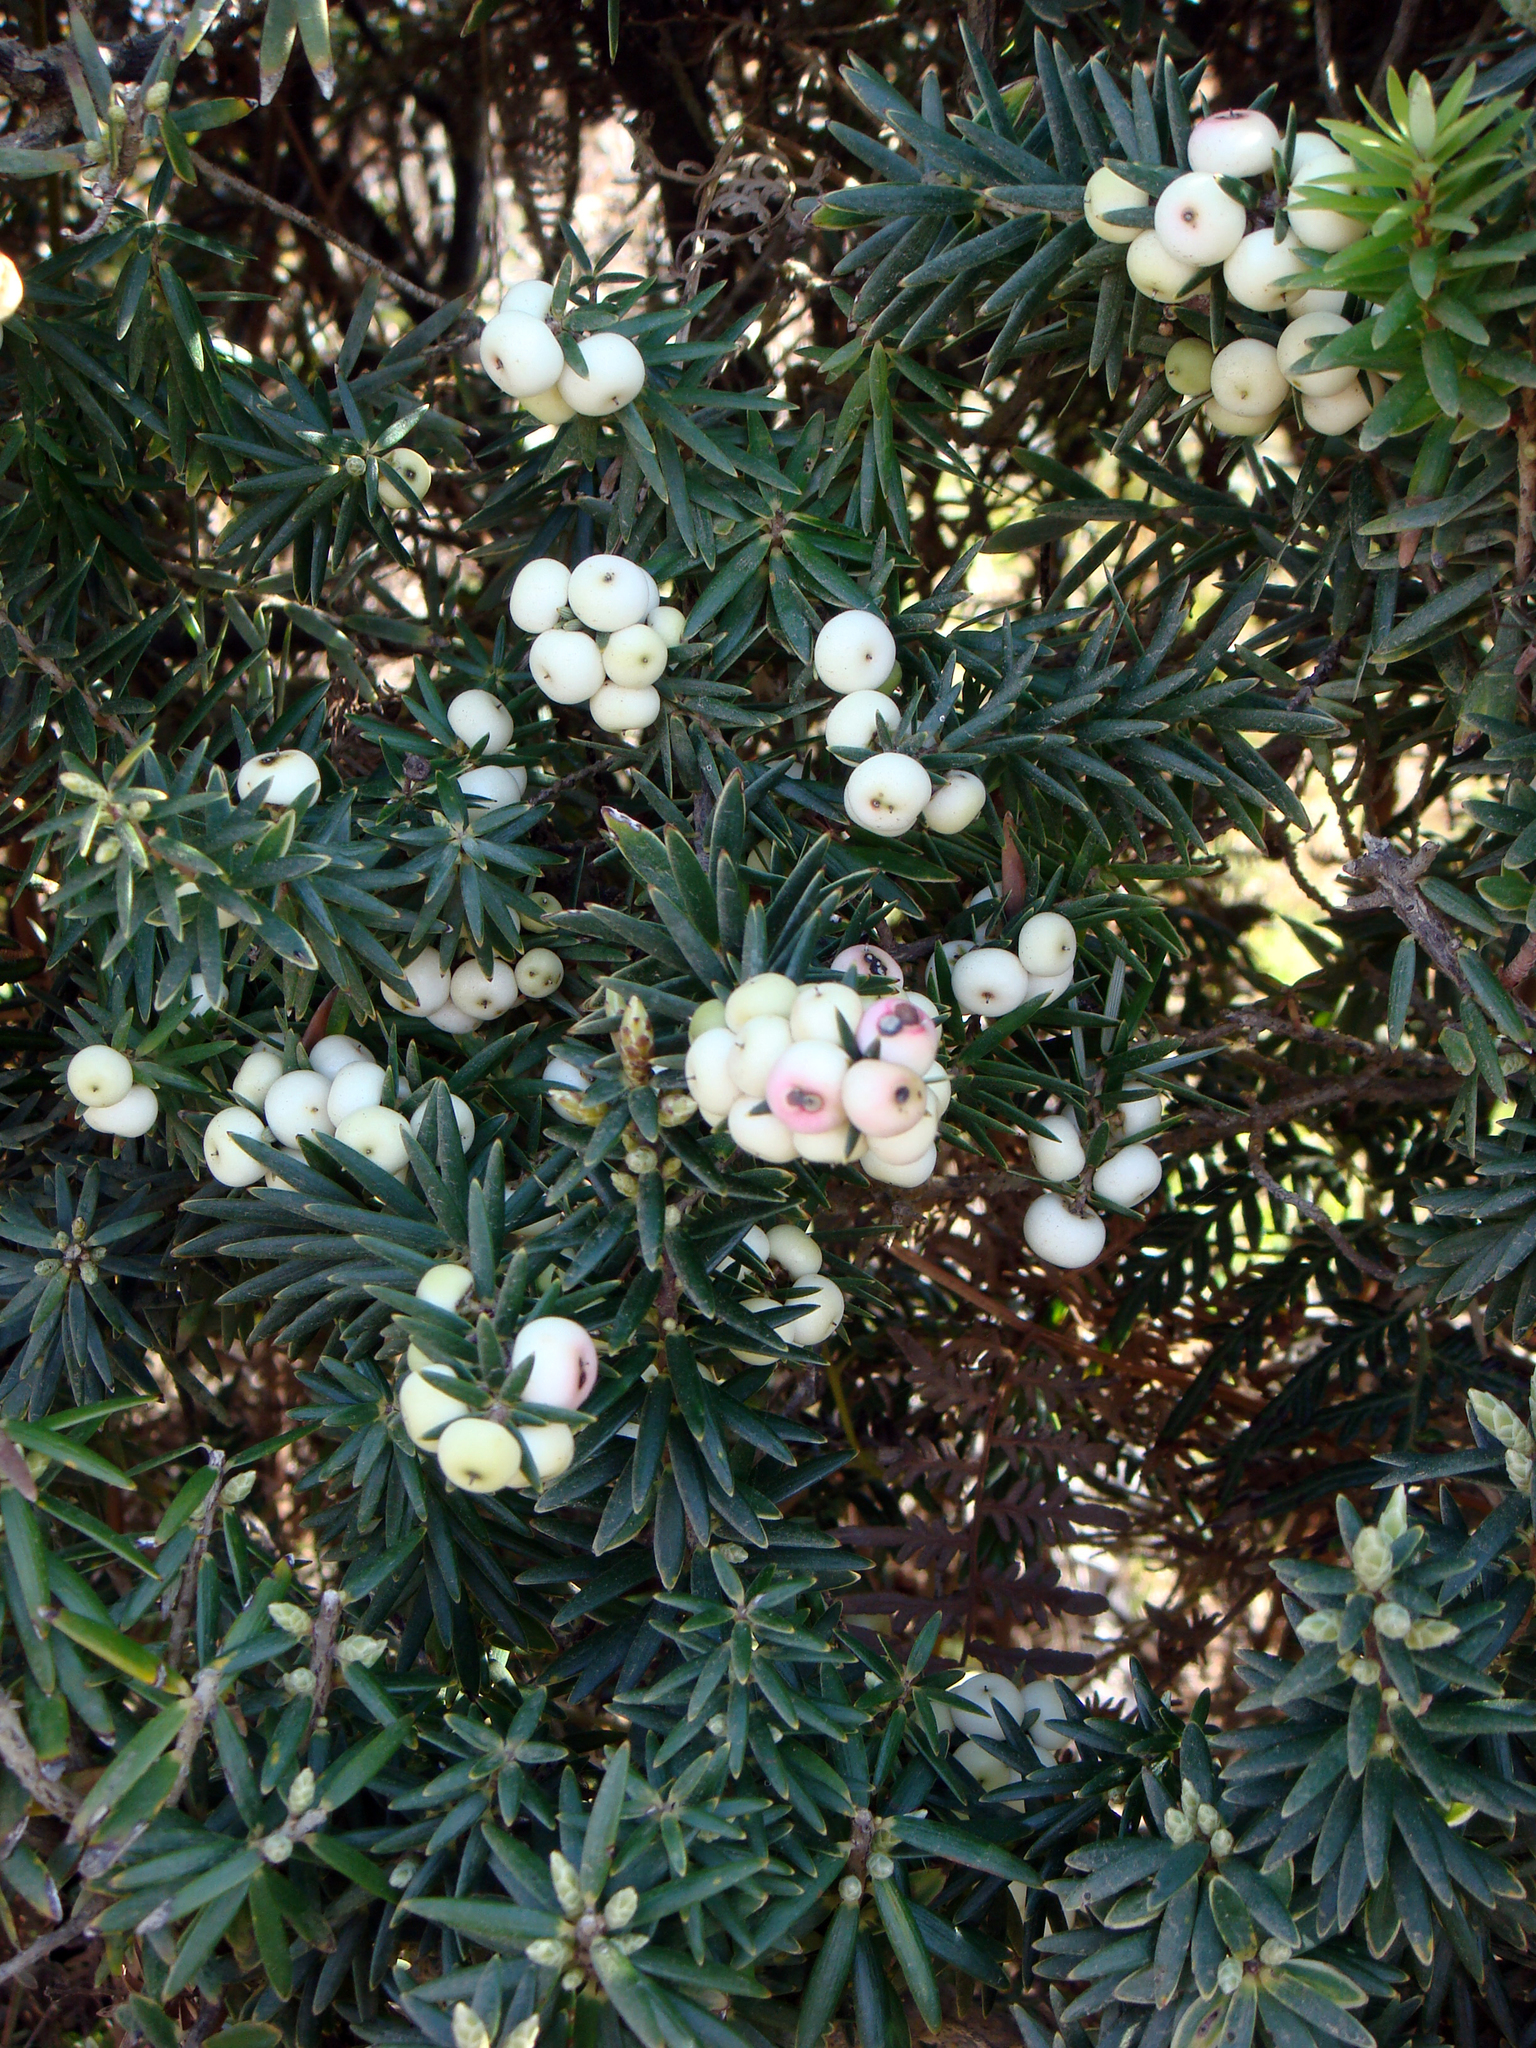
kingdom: Plantae
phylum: Tracheophyta
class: Magnoliopsida
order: Ericales
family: Ericaceae
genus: Leptecophylla
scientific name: Leptecophylla robusta
